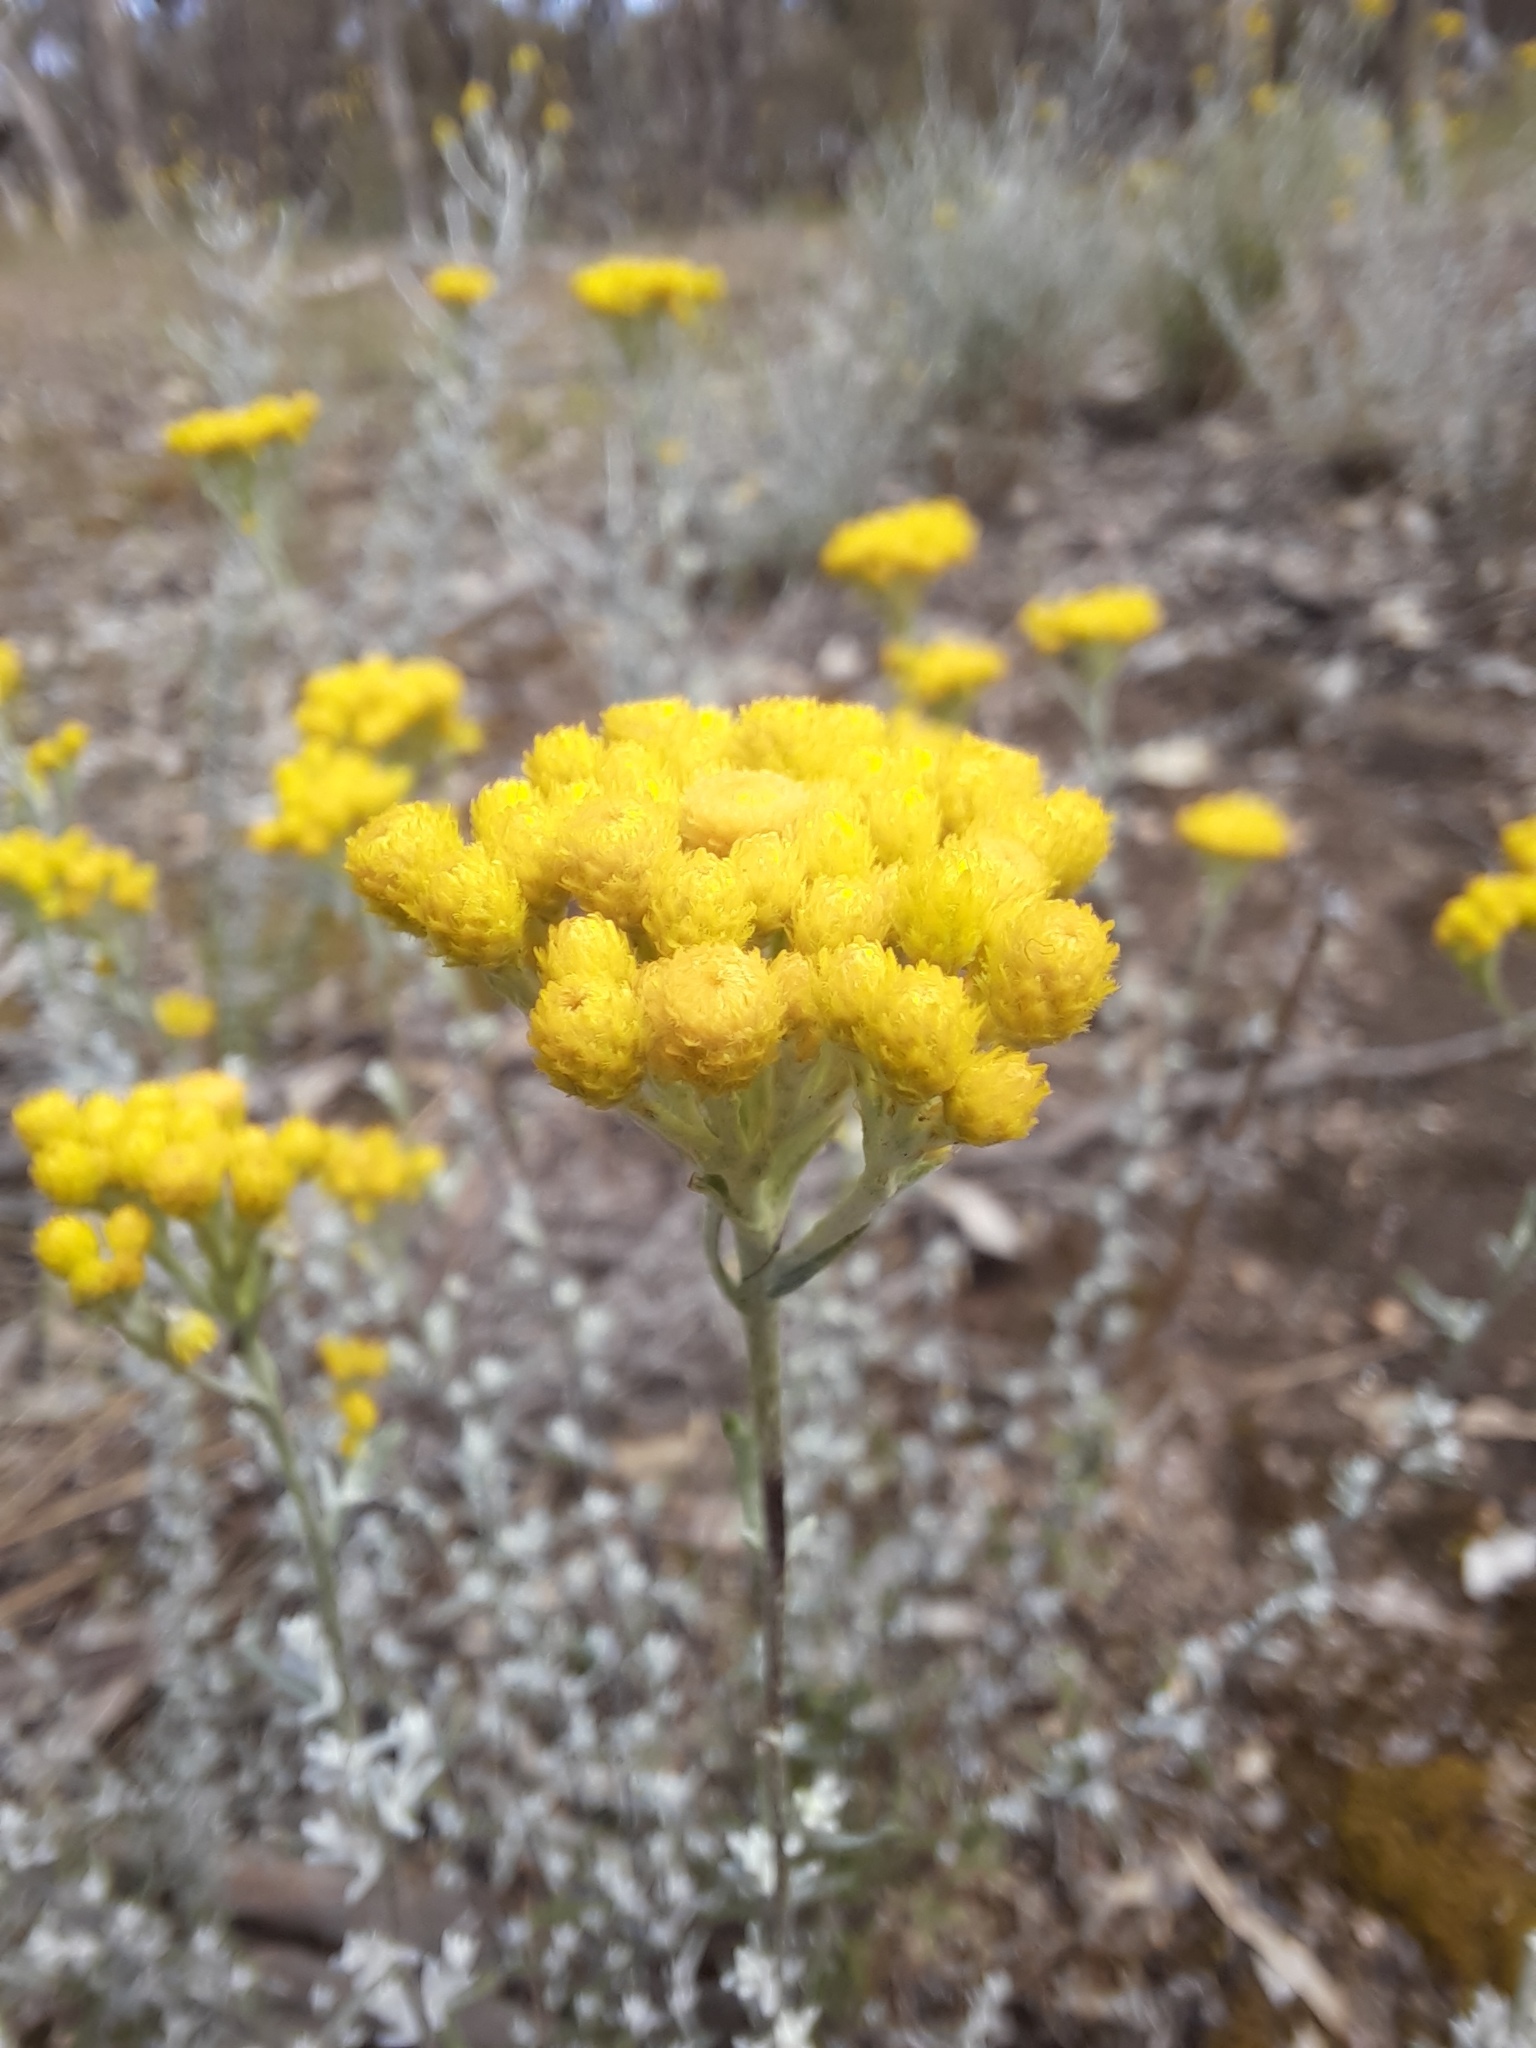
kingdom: Plantae
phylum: Tracheophyta
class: Magnoliopsida
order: Asterales
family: Asteraceae
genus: Chrysocephalum
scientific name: Chrysocephalum semipapposum
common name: Clustered everlasting
